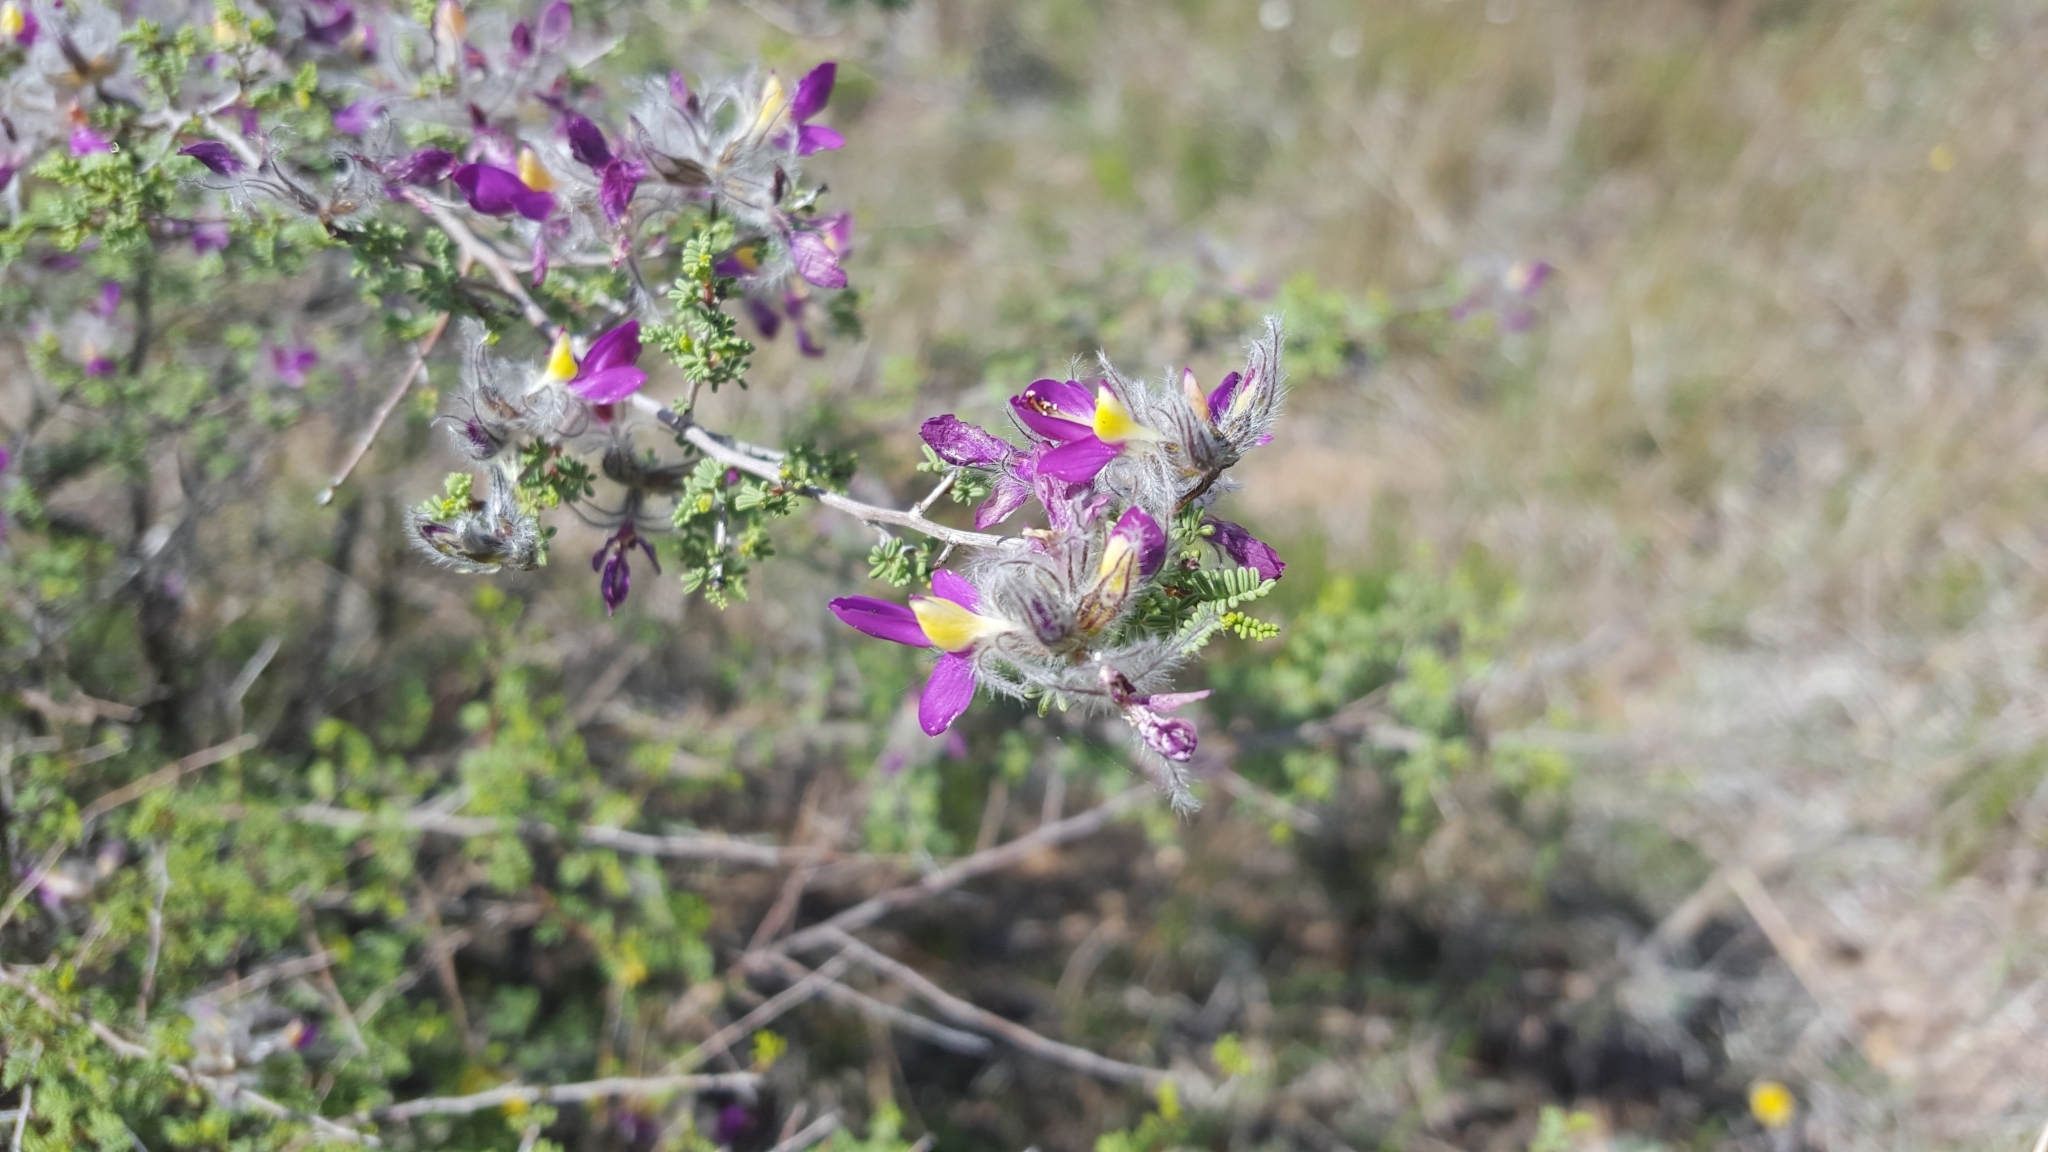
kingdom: Plantae
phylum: Tracheophyta
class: Magnoliopsida
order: Fabales
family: Fabaceae
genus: Dalea
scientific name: Dalea formosa
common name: Feather-plume dalea
